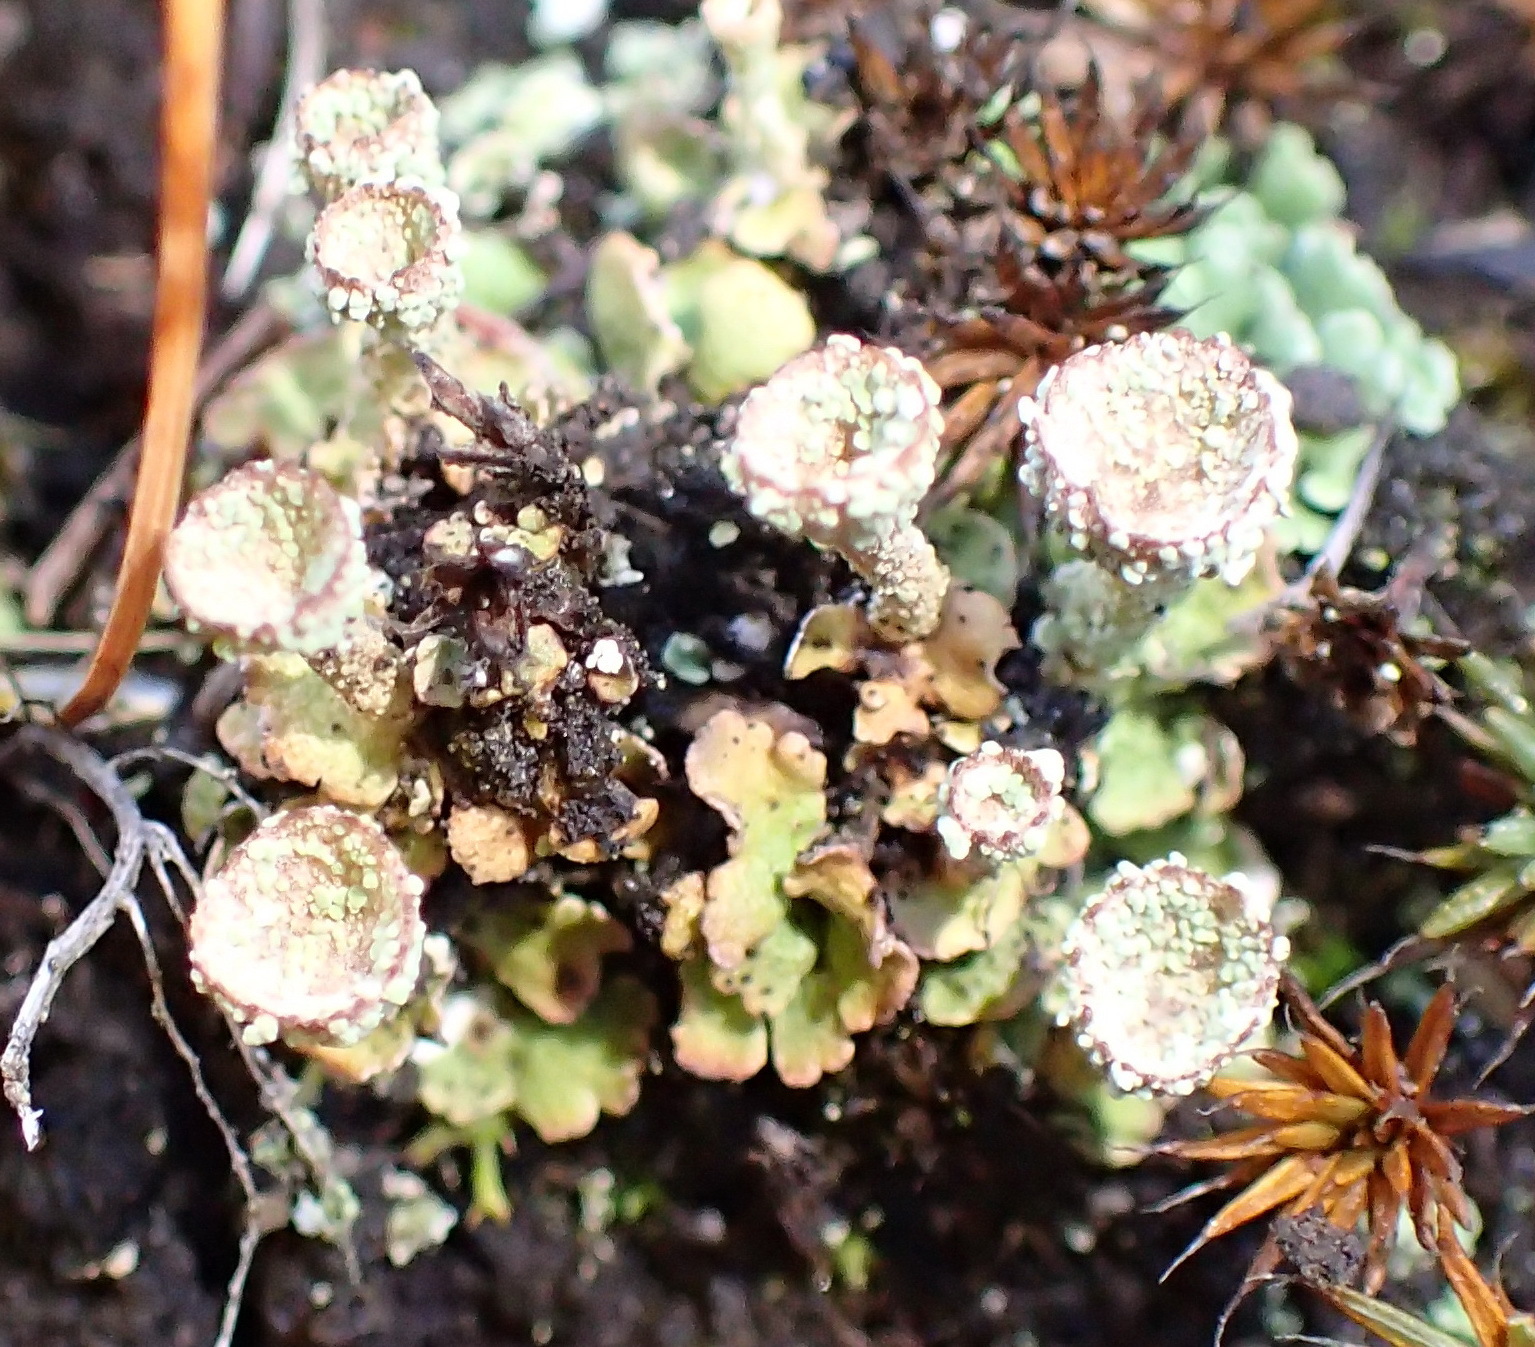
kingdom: Fungi
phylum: Ascomycota
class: Lecanoromycetes
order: Lecanorales
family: Cladoniaceae
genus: Cladonia
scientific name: Cladonia pyxidata
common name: Pebbled pixie cup
